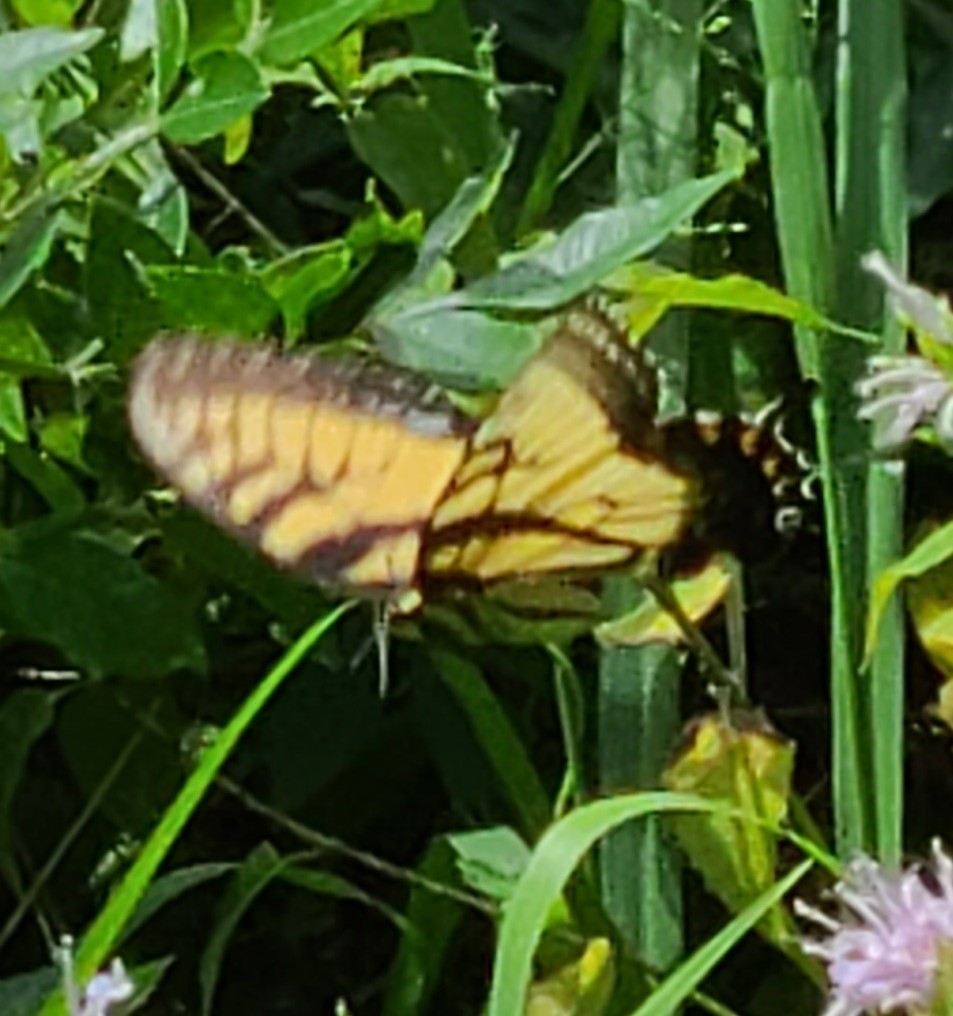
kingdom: Animalia
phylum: Arthropoda
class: Insecta
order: Lepidoptera
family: Papilionidae
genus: Papilio
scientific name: Papilio glaucus
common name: Tiger swallowtail
